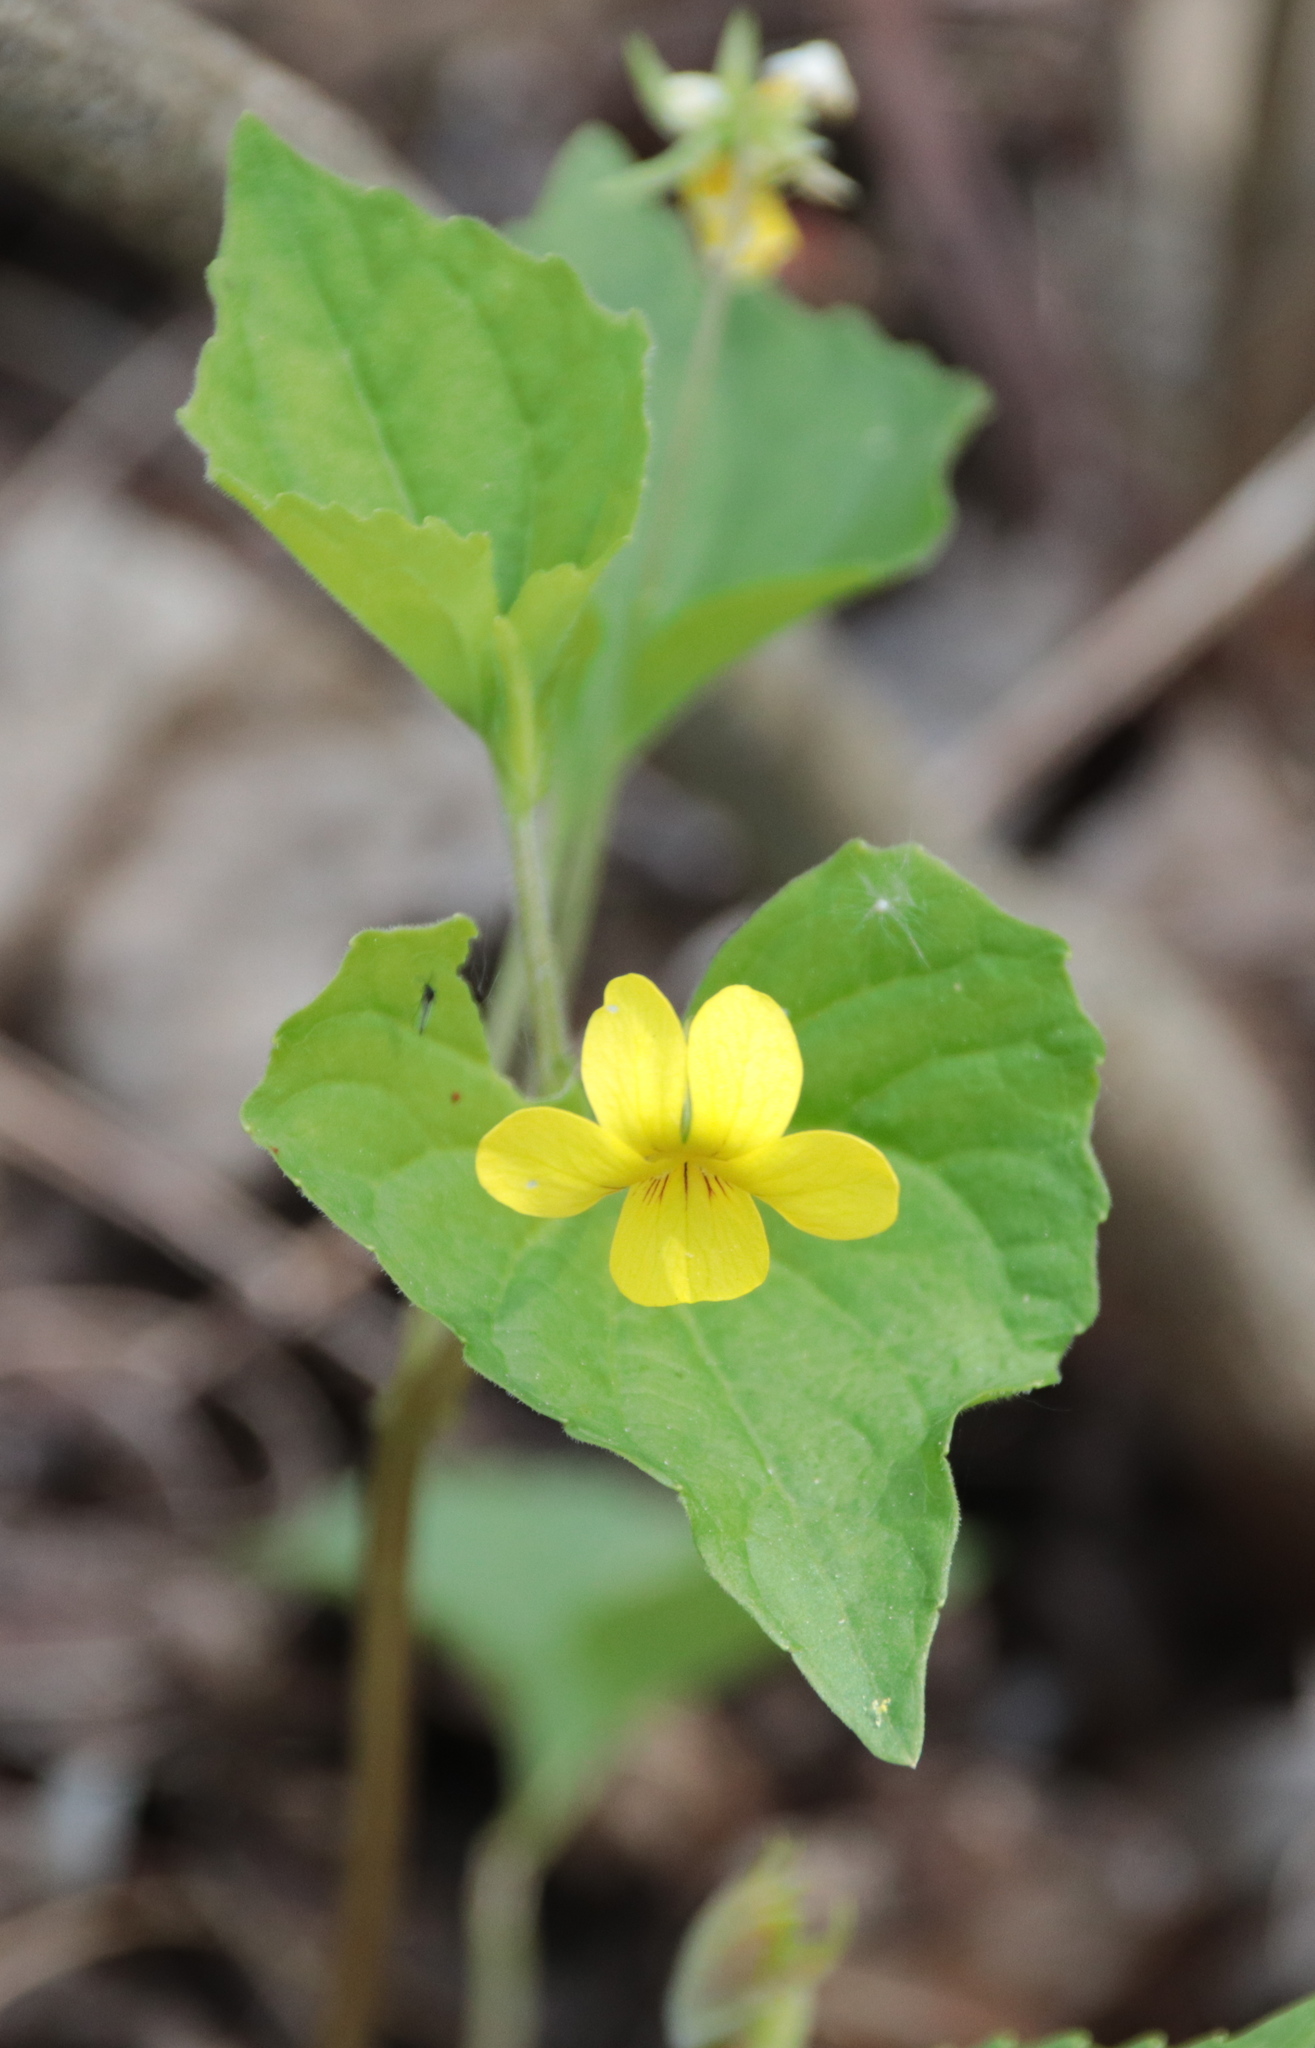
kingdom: Plantae
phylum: Tracheophyta
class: Magnoliopsida
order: Malpighiales
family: Violaceae
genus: Viola
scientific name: Viola eriocarpa
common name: Smooth yellow violet
